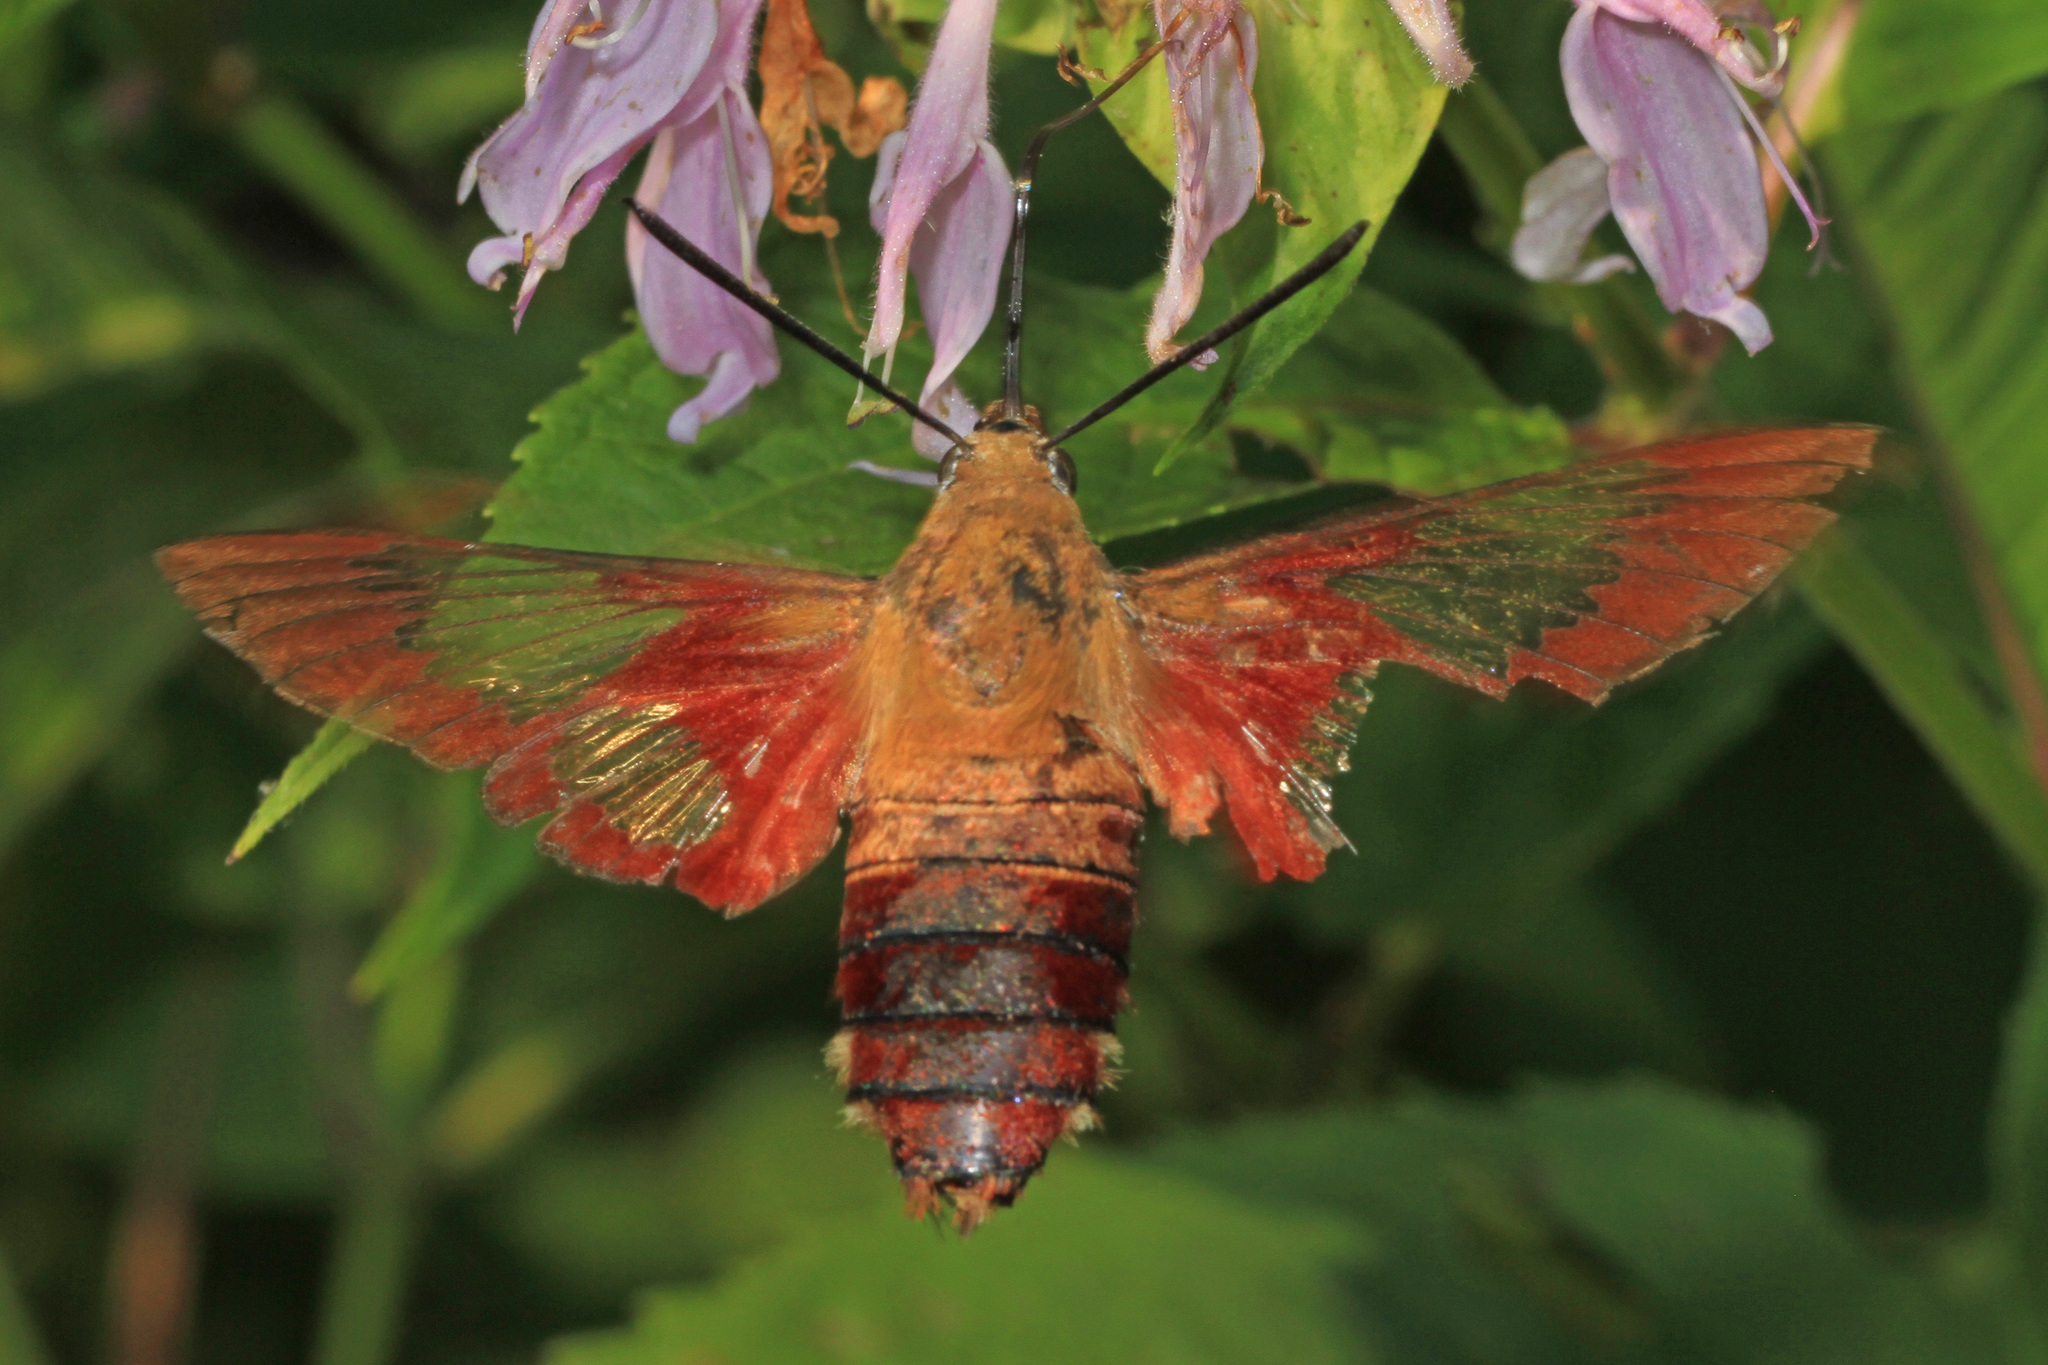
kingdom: Animalia
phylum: Arthropoda
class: Insecta
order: Lepidoptera
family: Sphingidae
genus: Hemaris
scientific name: Hemaris thysbe
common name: Common clear-wing
